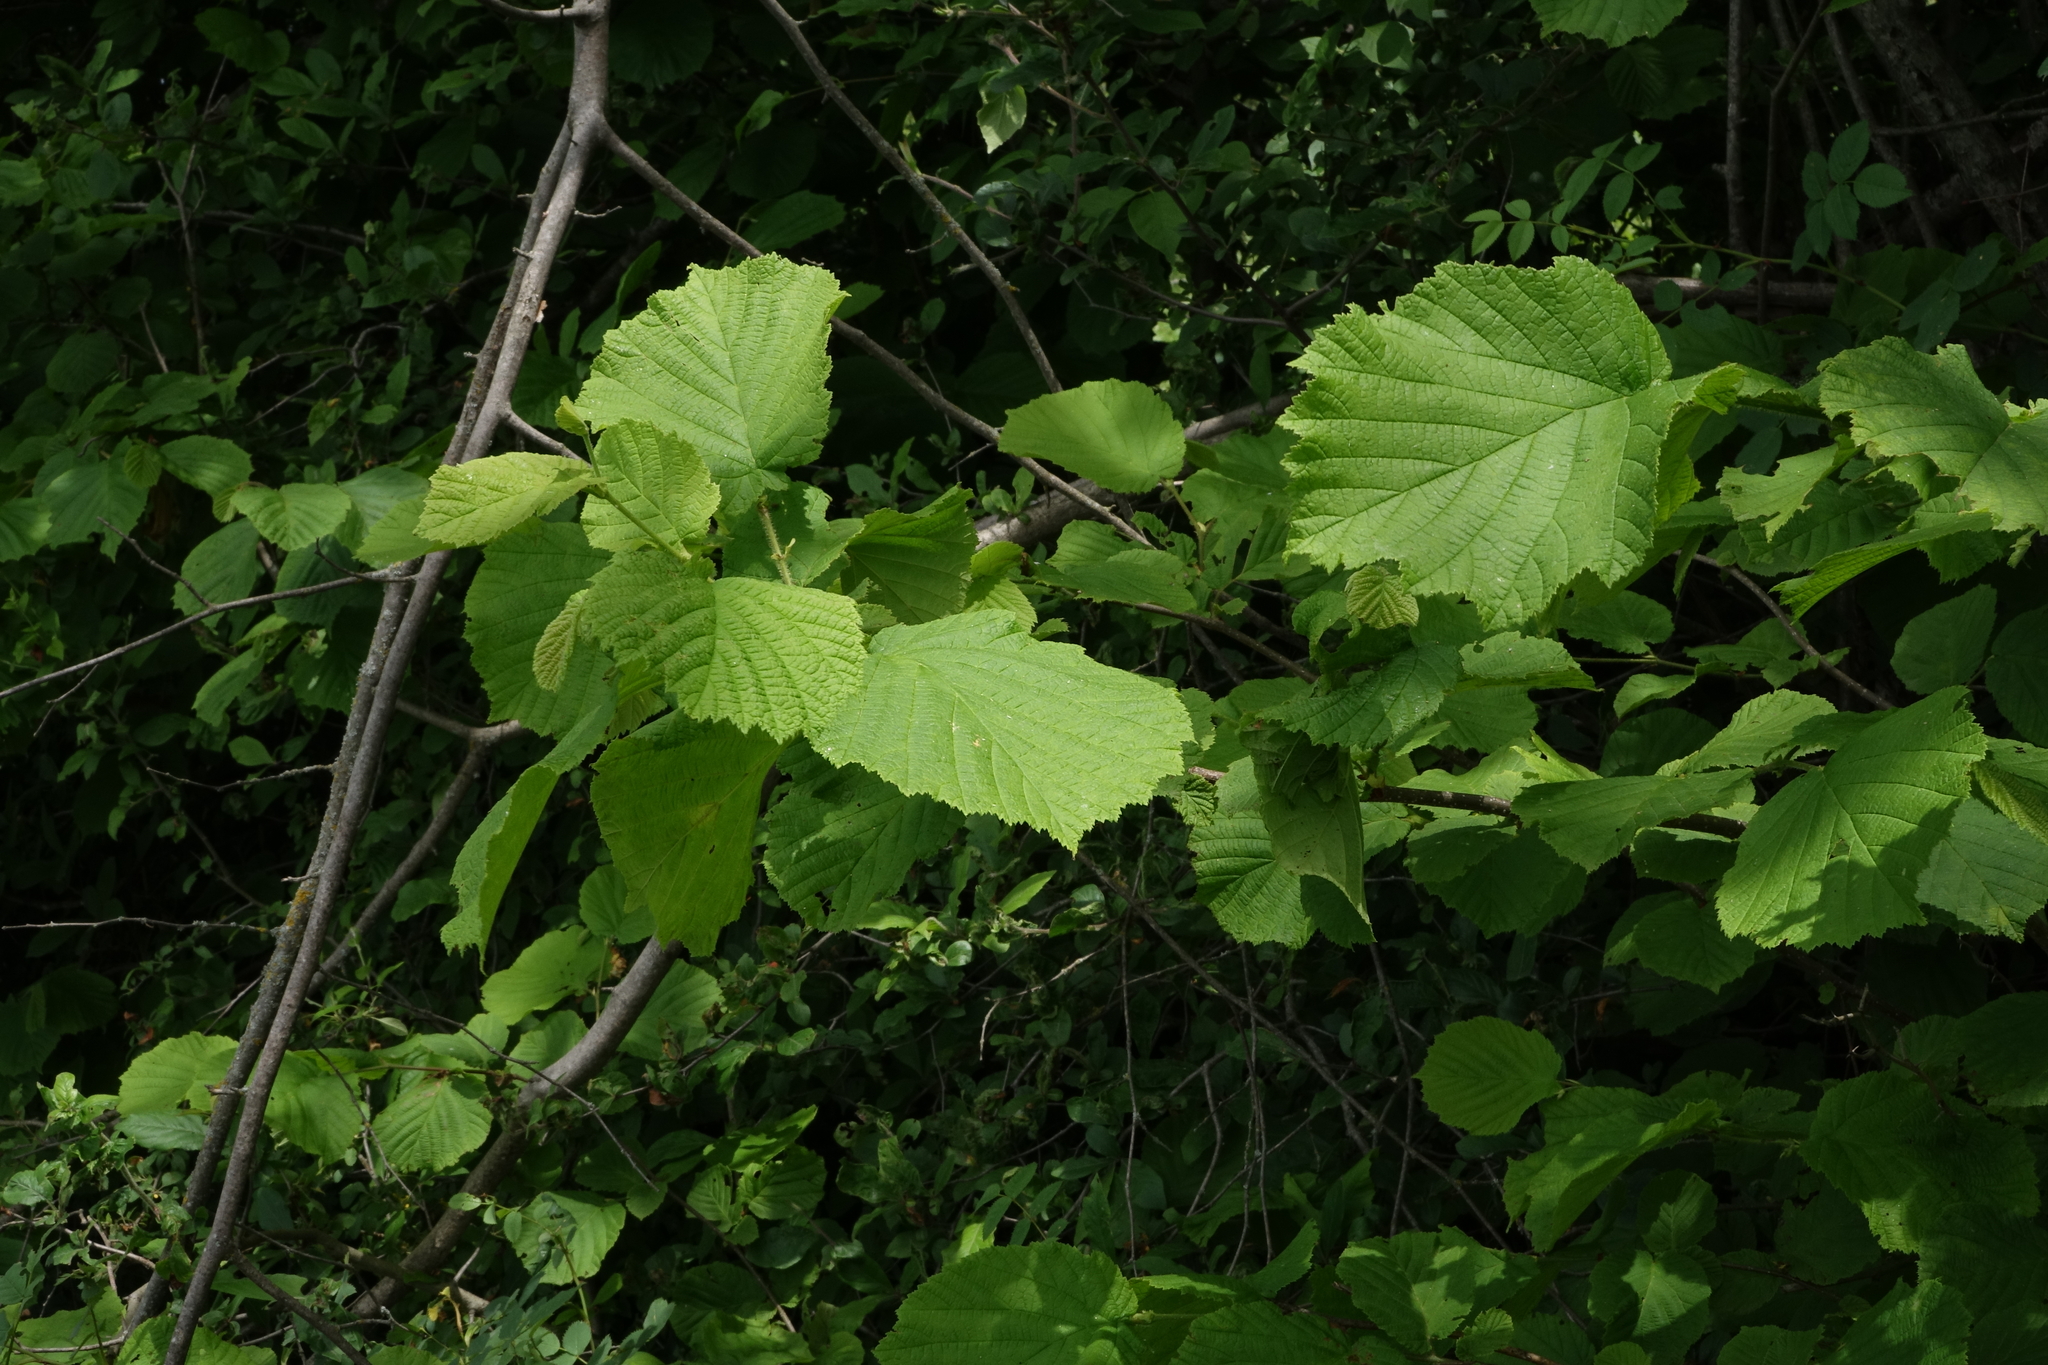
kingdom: Plantae
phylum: Tracheophyta
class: Magnoliopsida
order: Fagales
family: Betulaceae
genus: Corylus
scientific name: Corylus avellana
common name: European hazel
